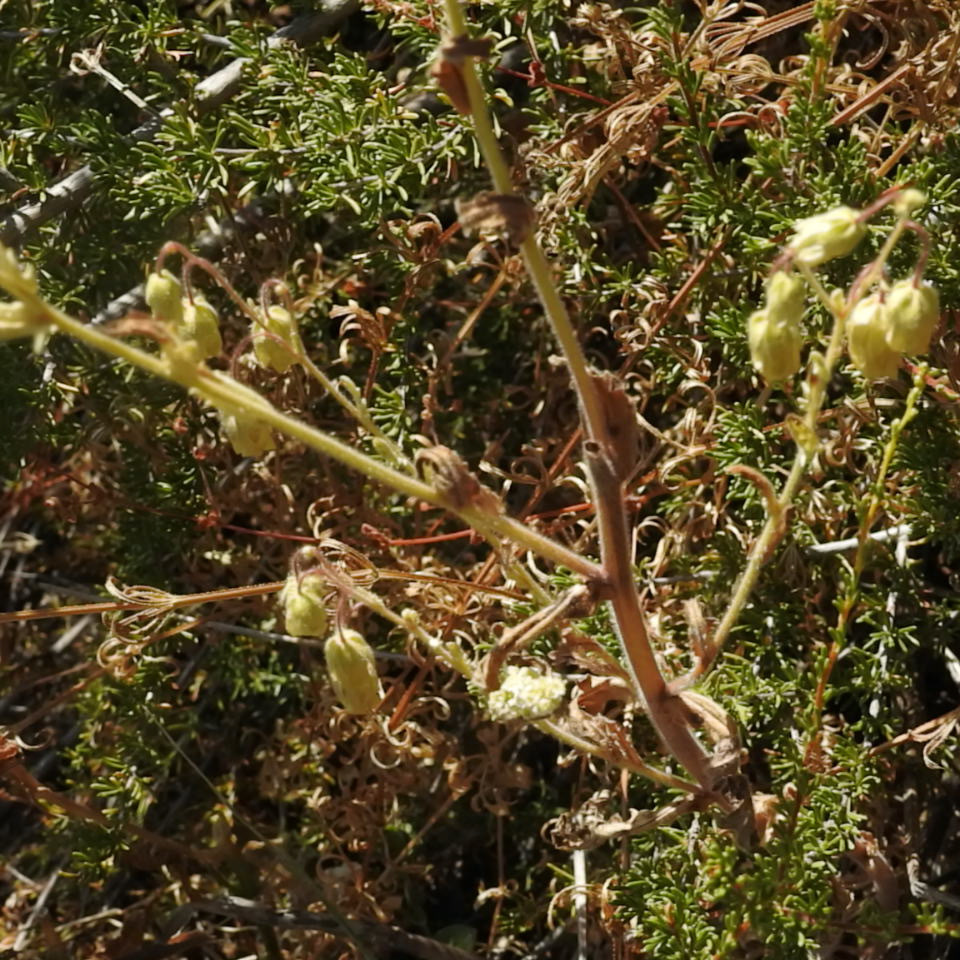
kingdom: Plantae
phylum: Tracheophyta
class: Magnoliopsida
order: Rosales
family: Rosaceae
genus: Adenostoma
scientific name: Adenostoma fasciculatum
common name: Chamise
